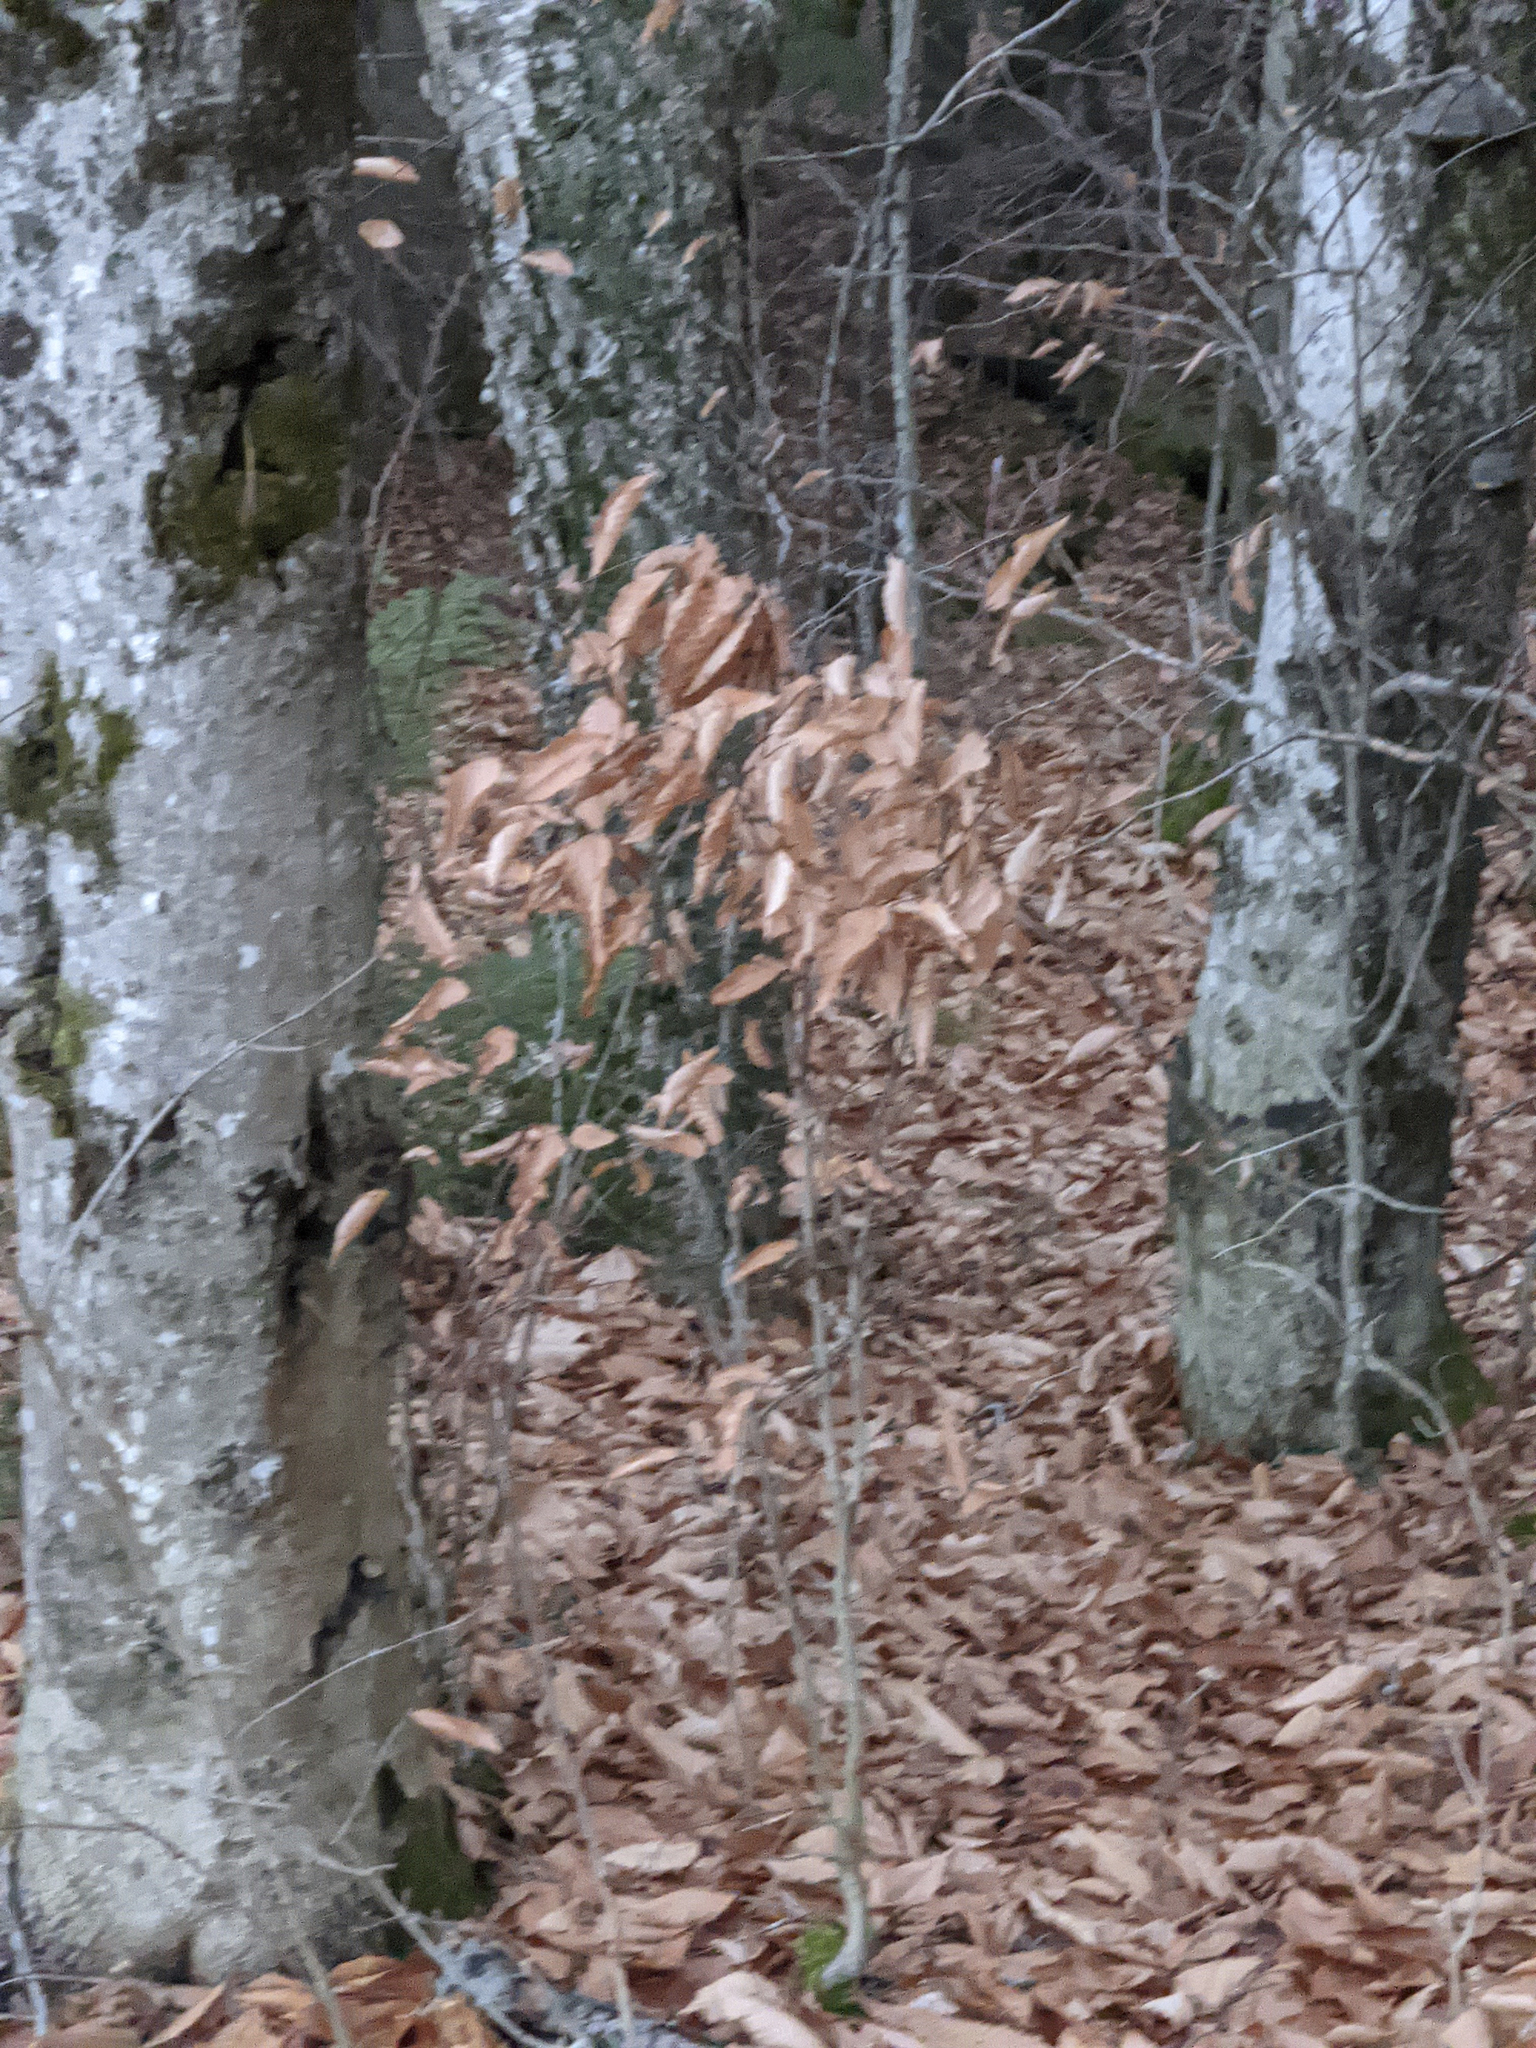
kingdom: Plantae
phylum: Tracheophyta
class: Magnoliopsida
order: Fagales
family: Fagaceae
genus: Fagus
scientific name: Fagus grandifolia
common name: American beech
